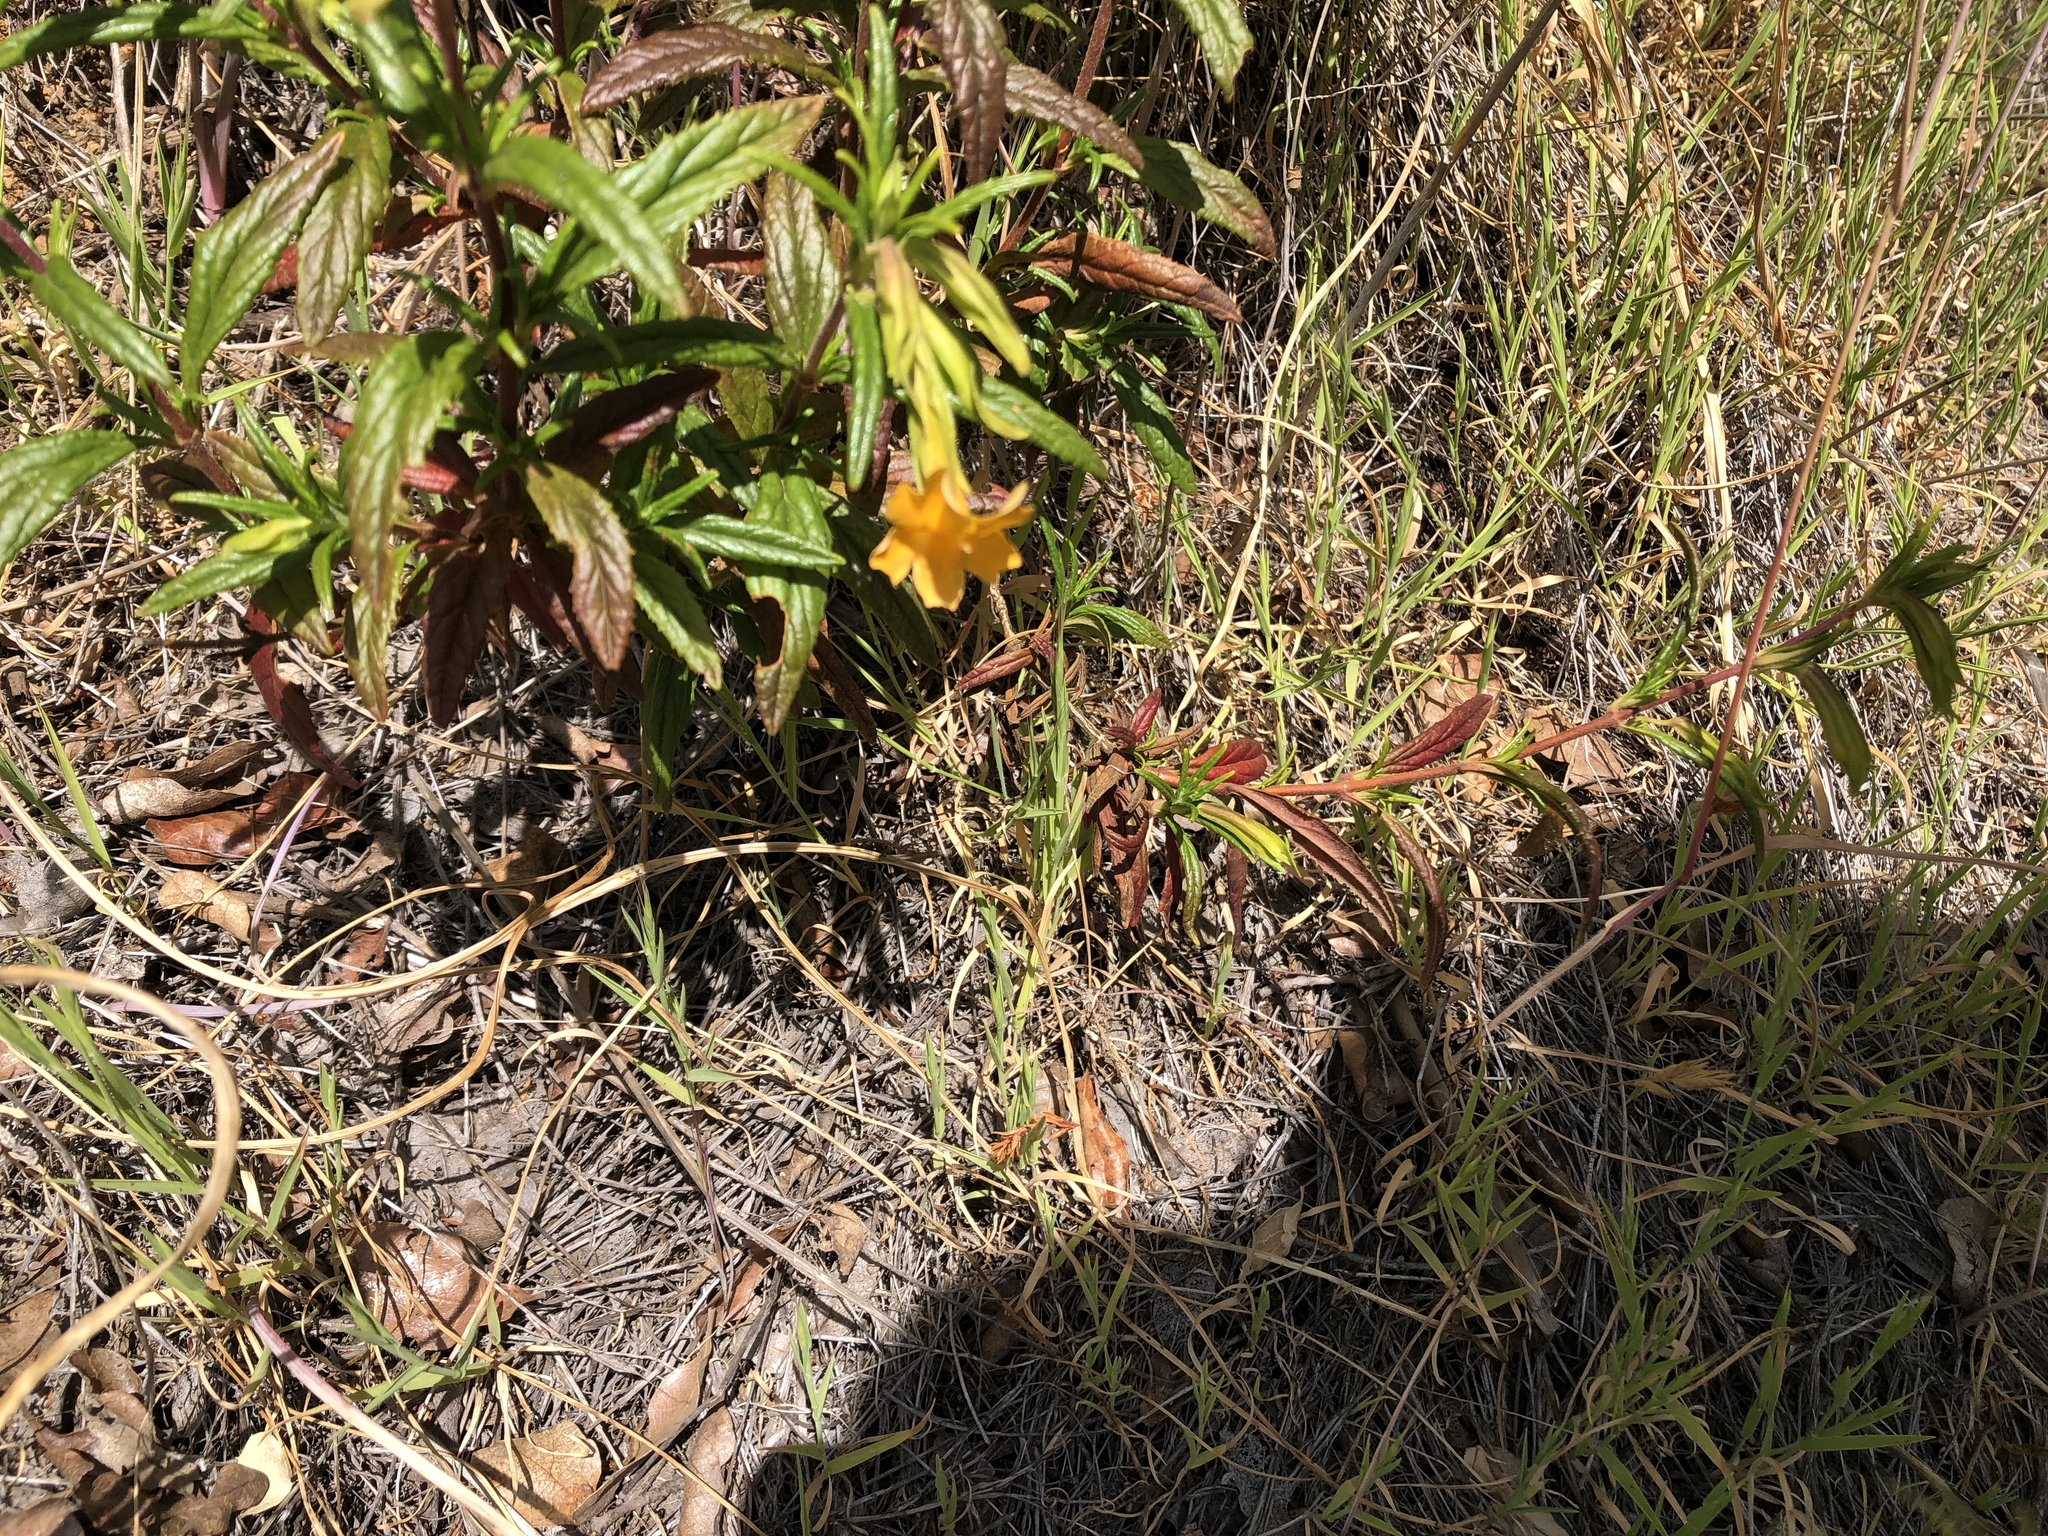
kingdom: Plantae
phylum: Tracheophyta
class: Magnoliopsida
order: Lamiales
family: Phrymaceae
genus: Diplacus
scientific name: Diplacus aurantiacus
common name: Bush monkey-flower
